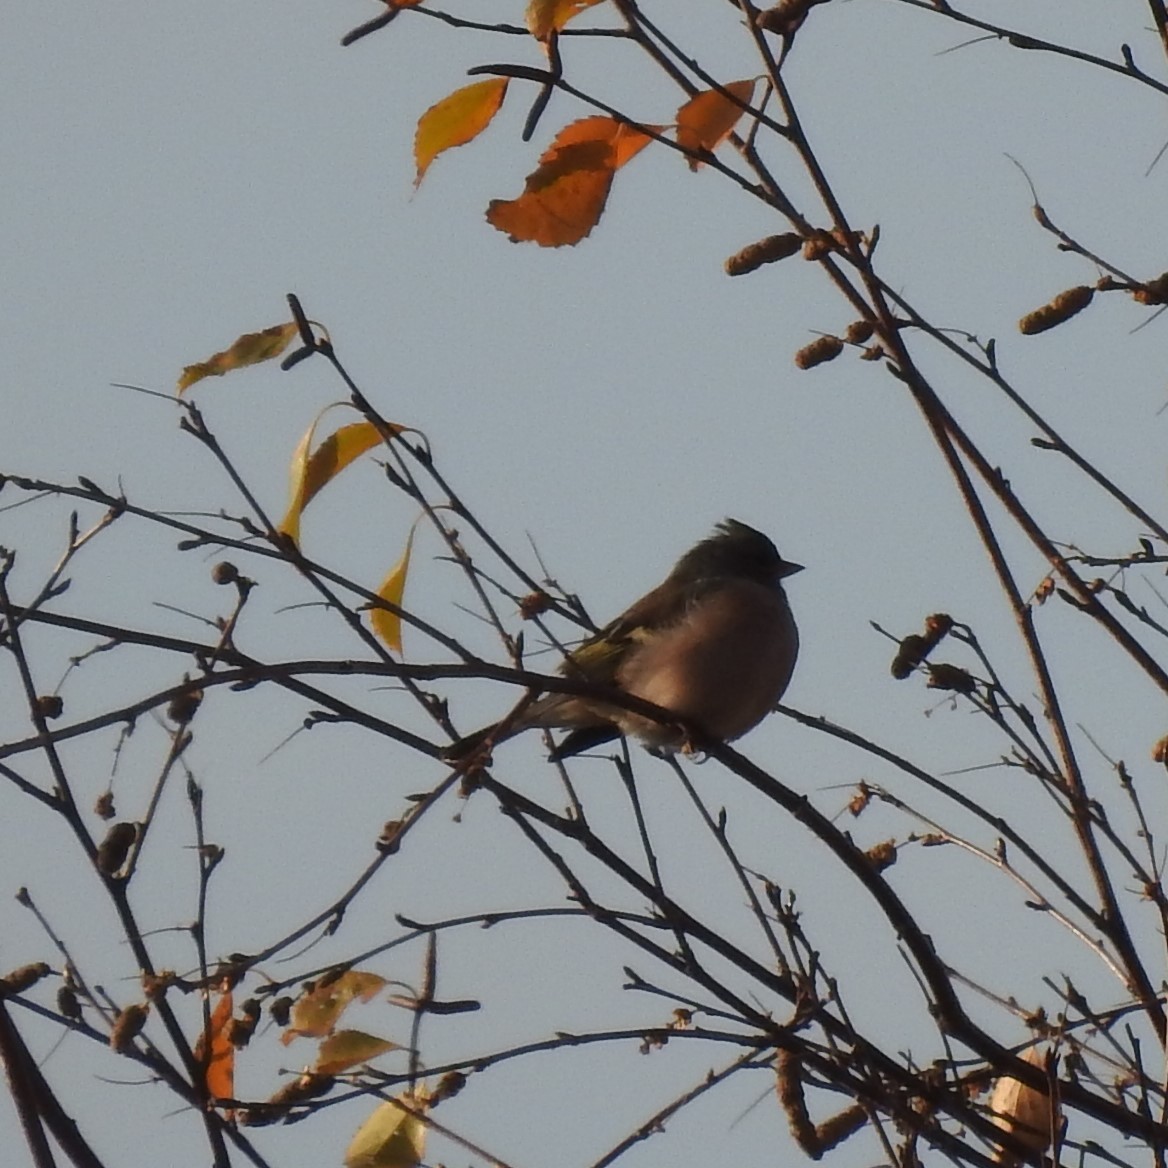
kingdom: Animalia
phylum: Chordata
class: Aves
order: Passeriformes
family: Fringillidae
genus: Fringilla
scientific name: Fringilla coelebs
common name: Common chaffinch
